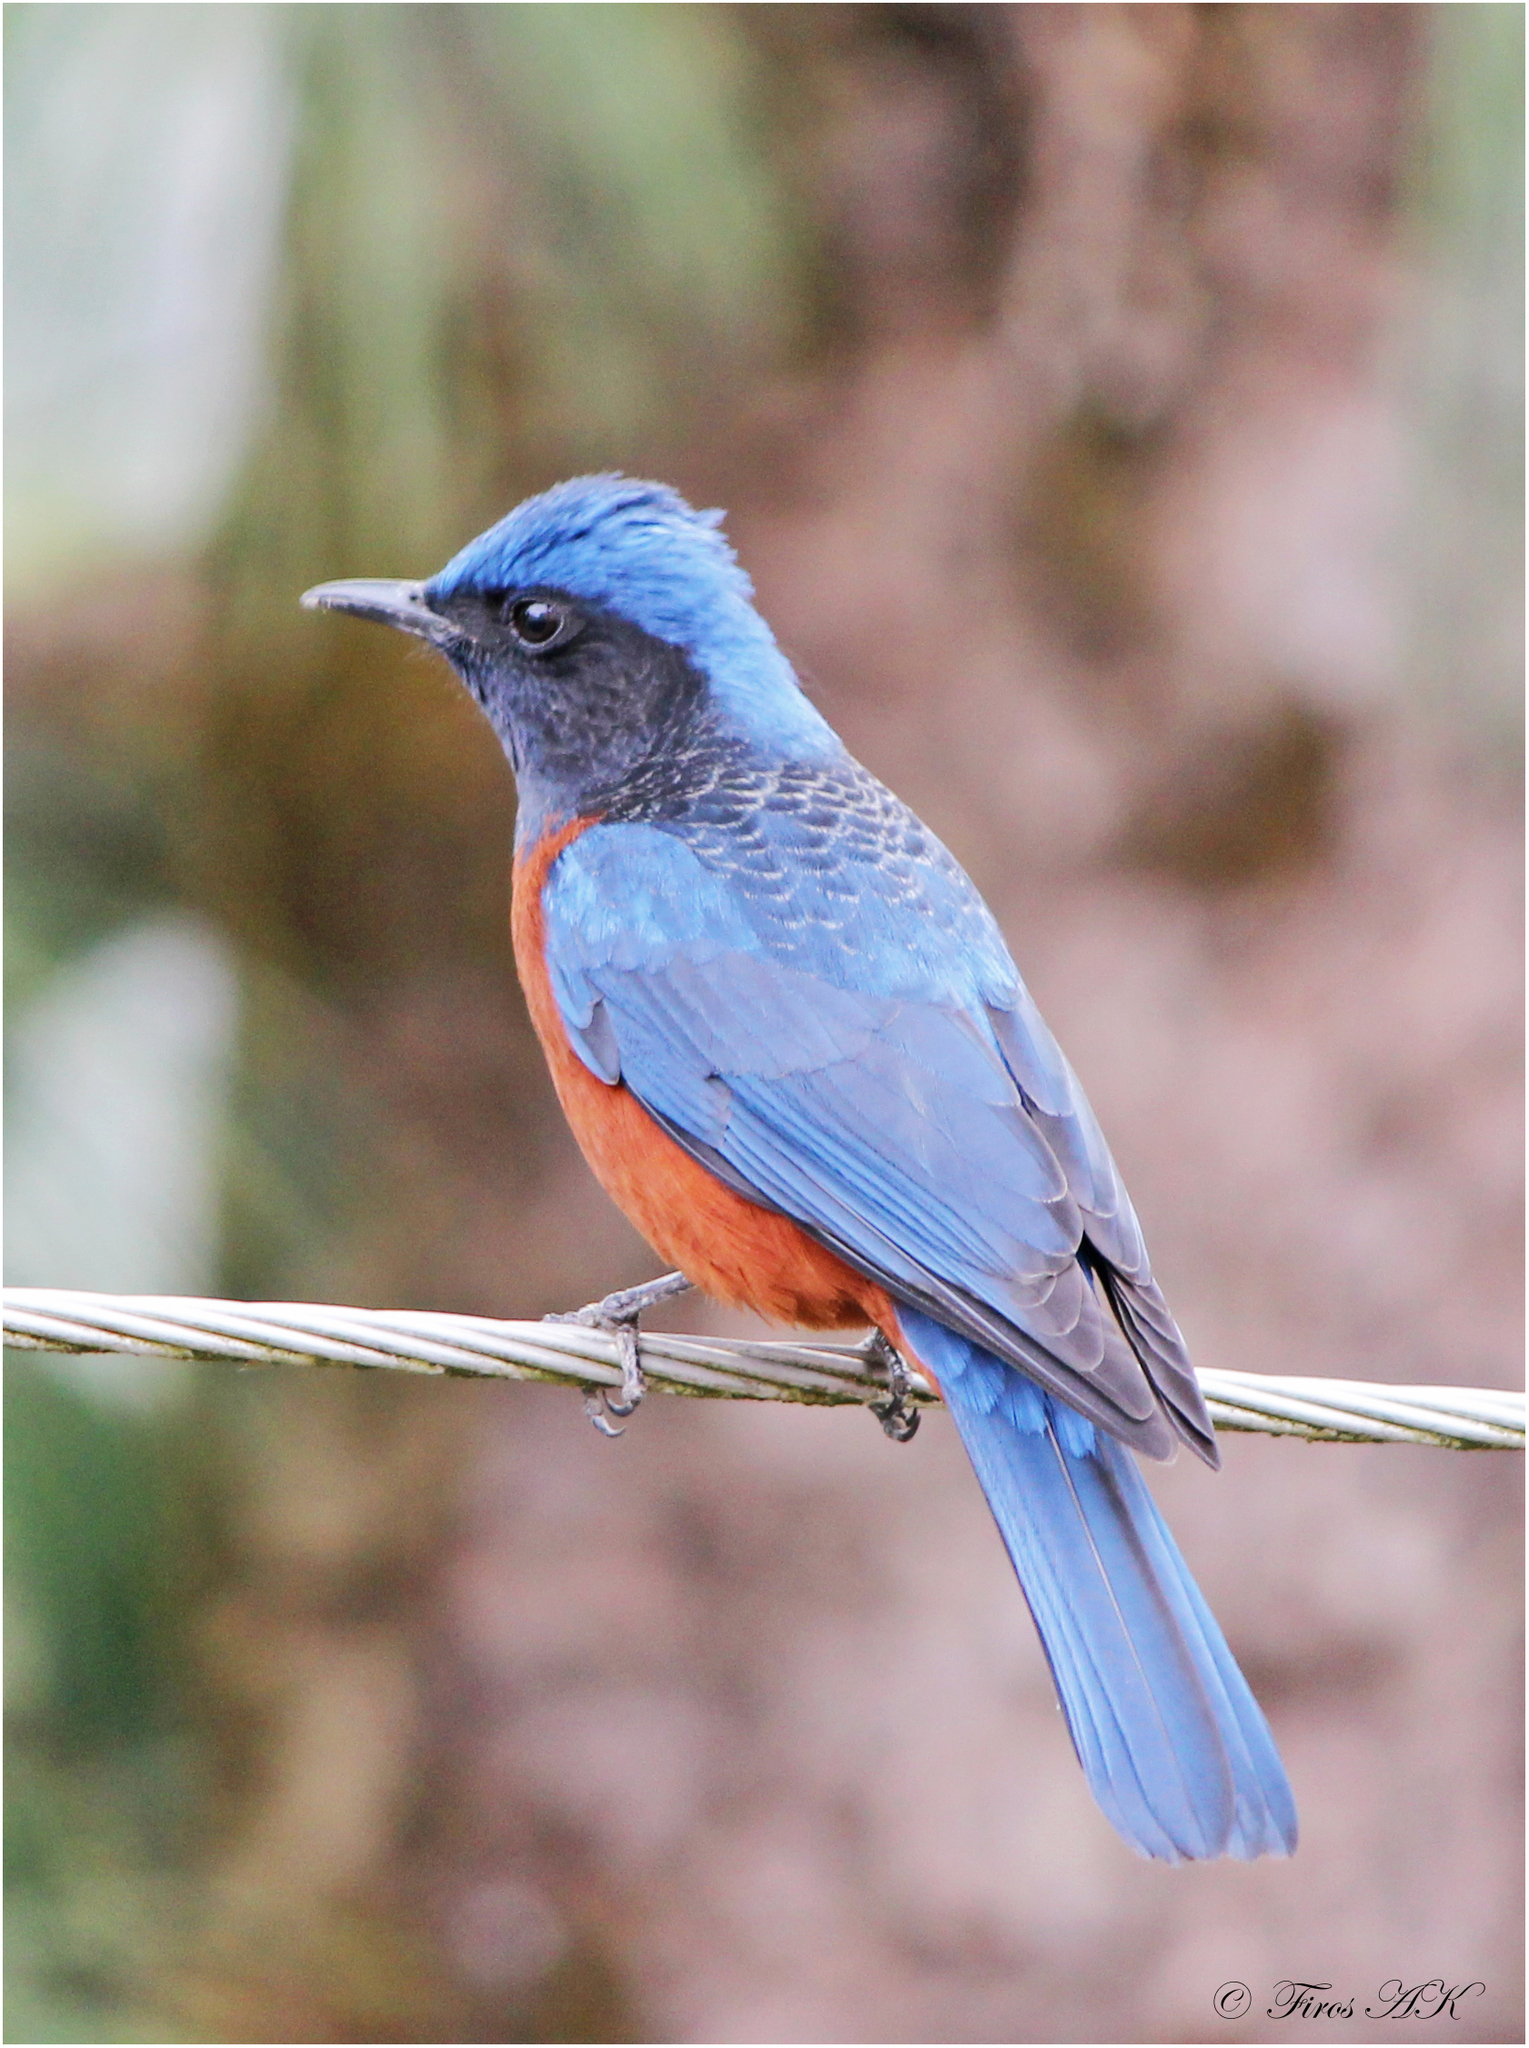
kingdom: Animalia
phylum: Chordata
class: Aves
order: Passeriformes
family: Muscicapidae
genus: Monticola
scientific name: Monticola rufiventris
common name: Chestnut-bellied rock thrush
